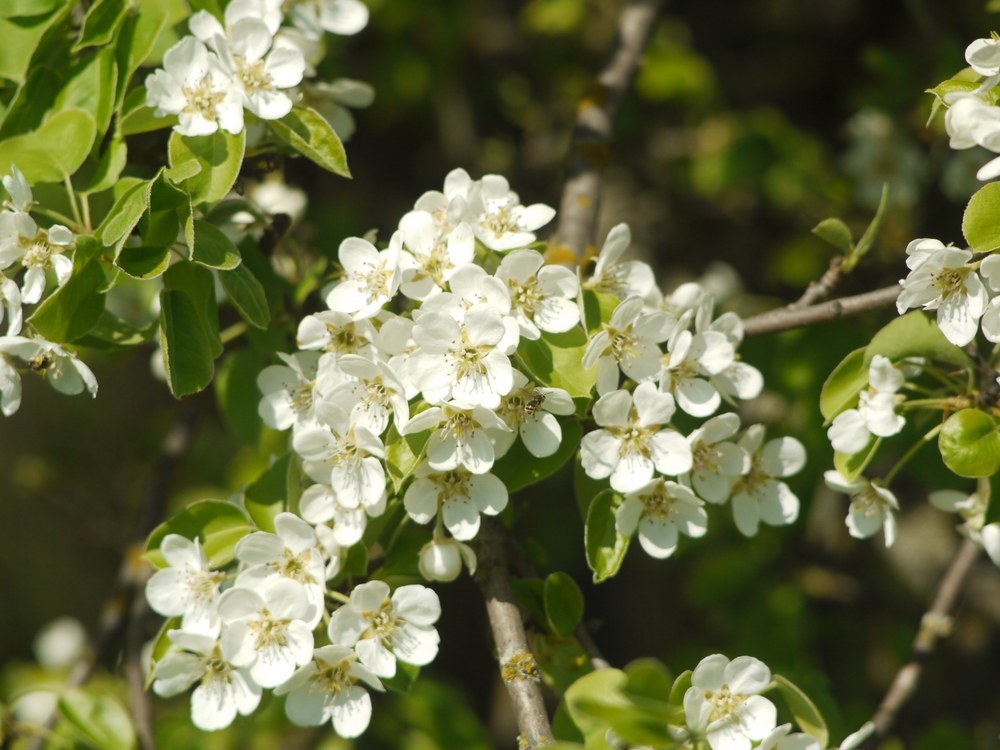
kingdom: Plantae
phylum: Tracheophyta
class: Magnoliopsida
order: Rosales
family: Rosaceae
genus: Pyrus
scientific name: Pyrus communis
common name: Pear
